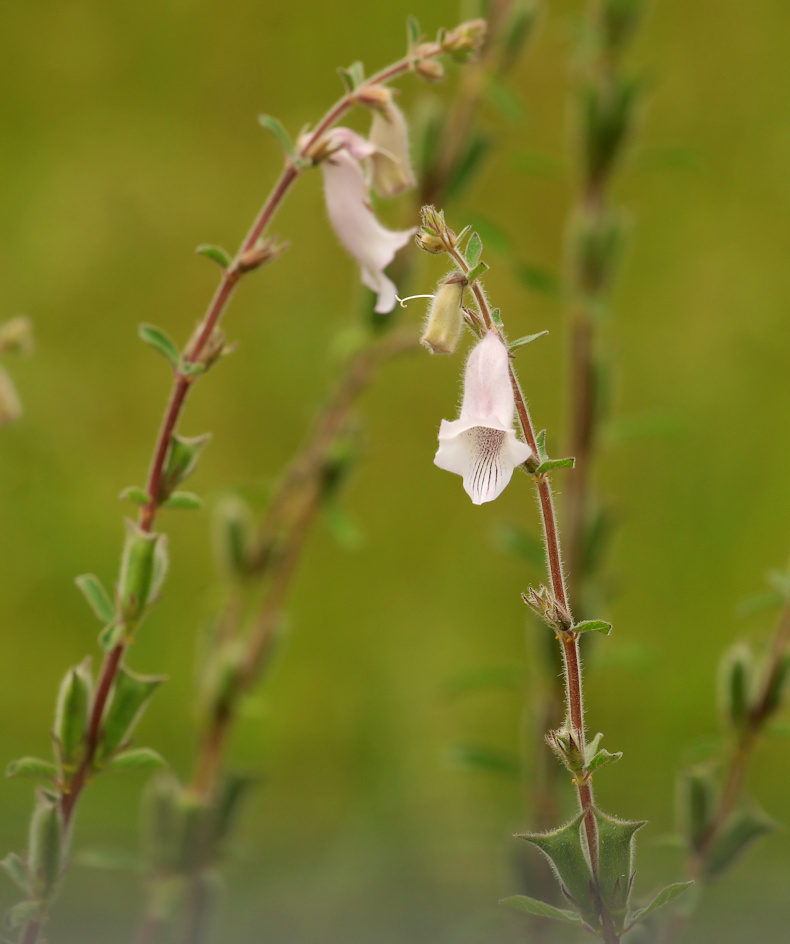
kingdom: Plantae
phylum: Tracheophyta
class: Magnoliopsida
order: Lamiales
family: Pedaliaceae
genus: Sesamum
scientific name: Sesamum trilobum
